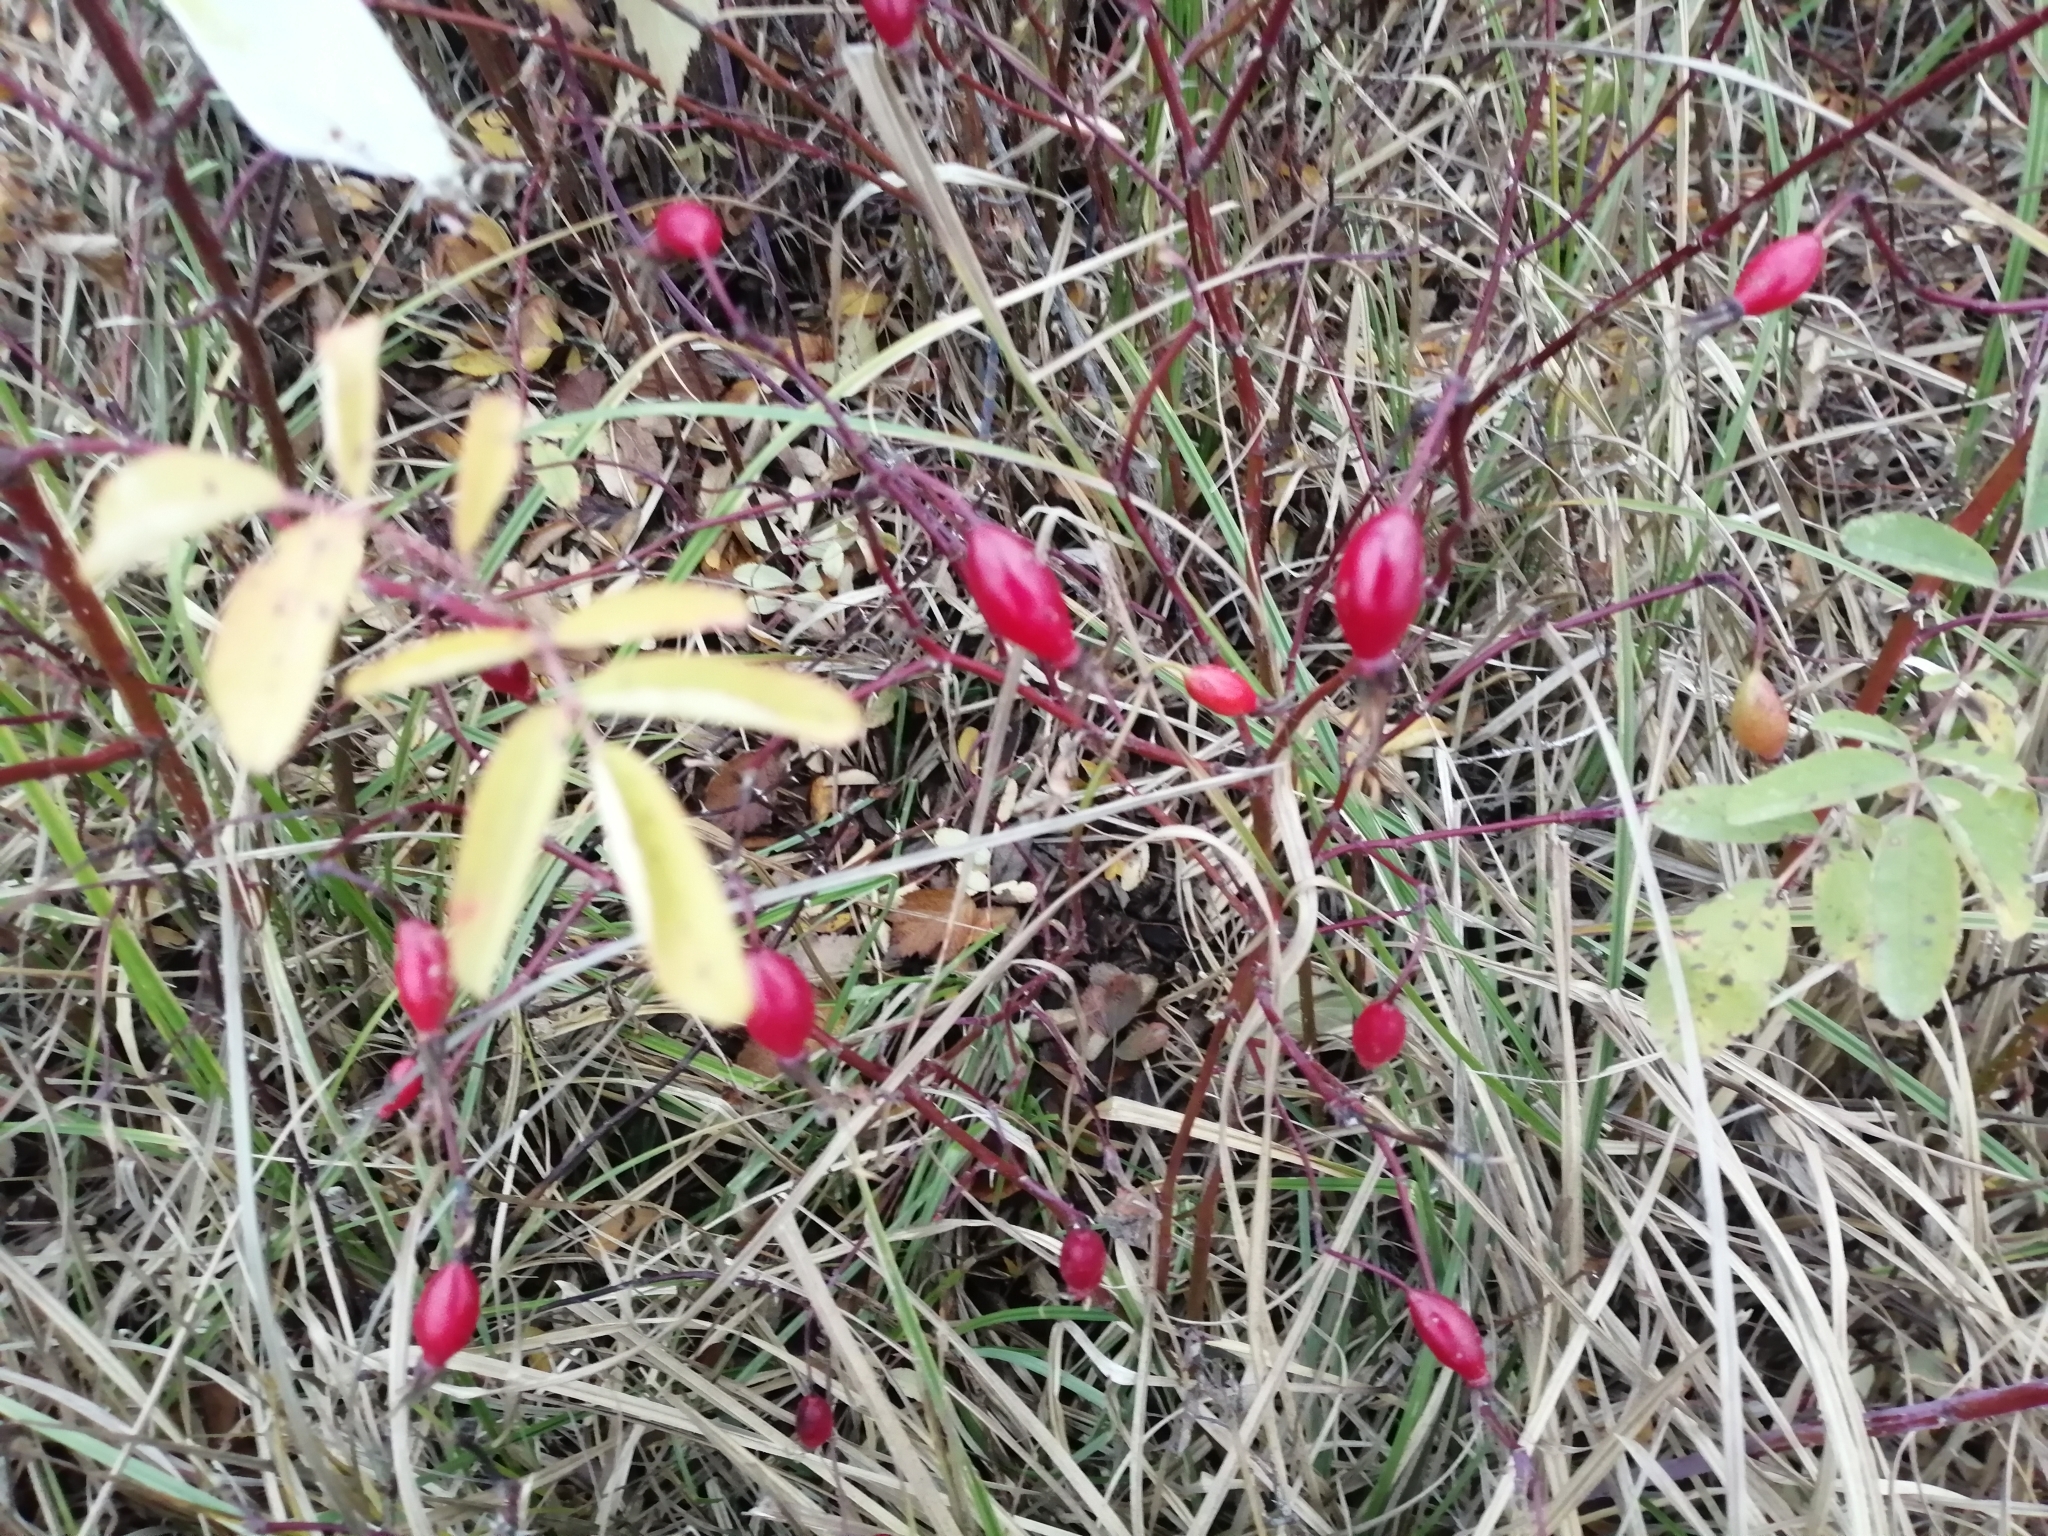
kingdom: Plantae
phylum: Tracheophyta
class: Magnoliopsida
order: Rosales
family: Rosaceae
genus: Rosa
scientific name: Rosa majalis
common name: Cinnamon rose
